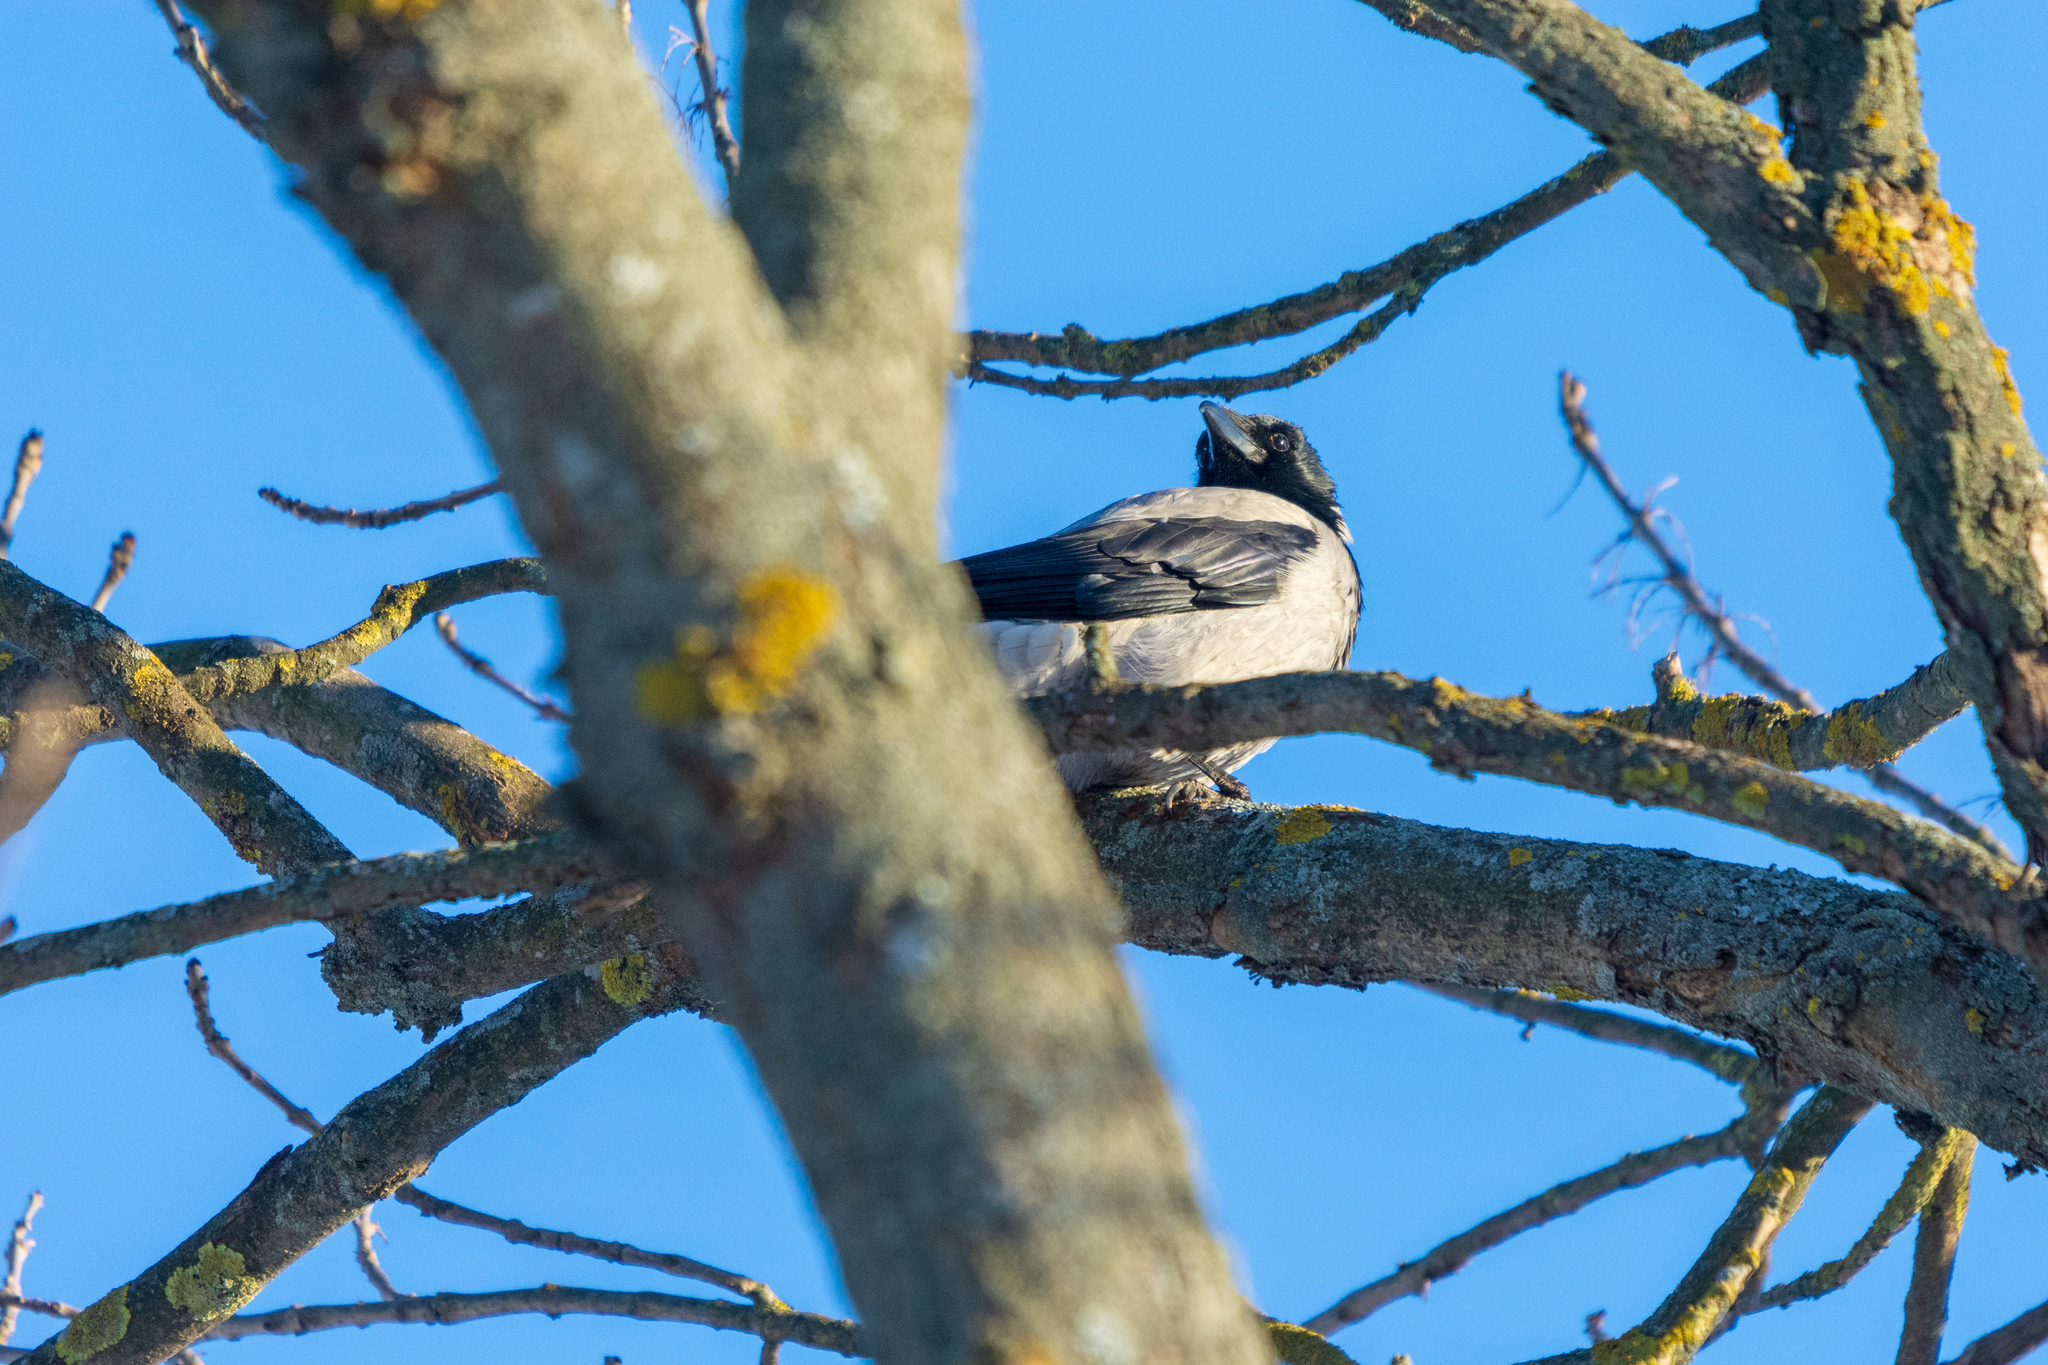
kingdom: Animalia
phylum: Chordata
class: Aves
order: Passeriformes
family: Corvidae
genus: Corvus
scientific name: Corvus cornix
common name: Hooded crow
